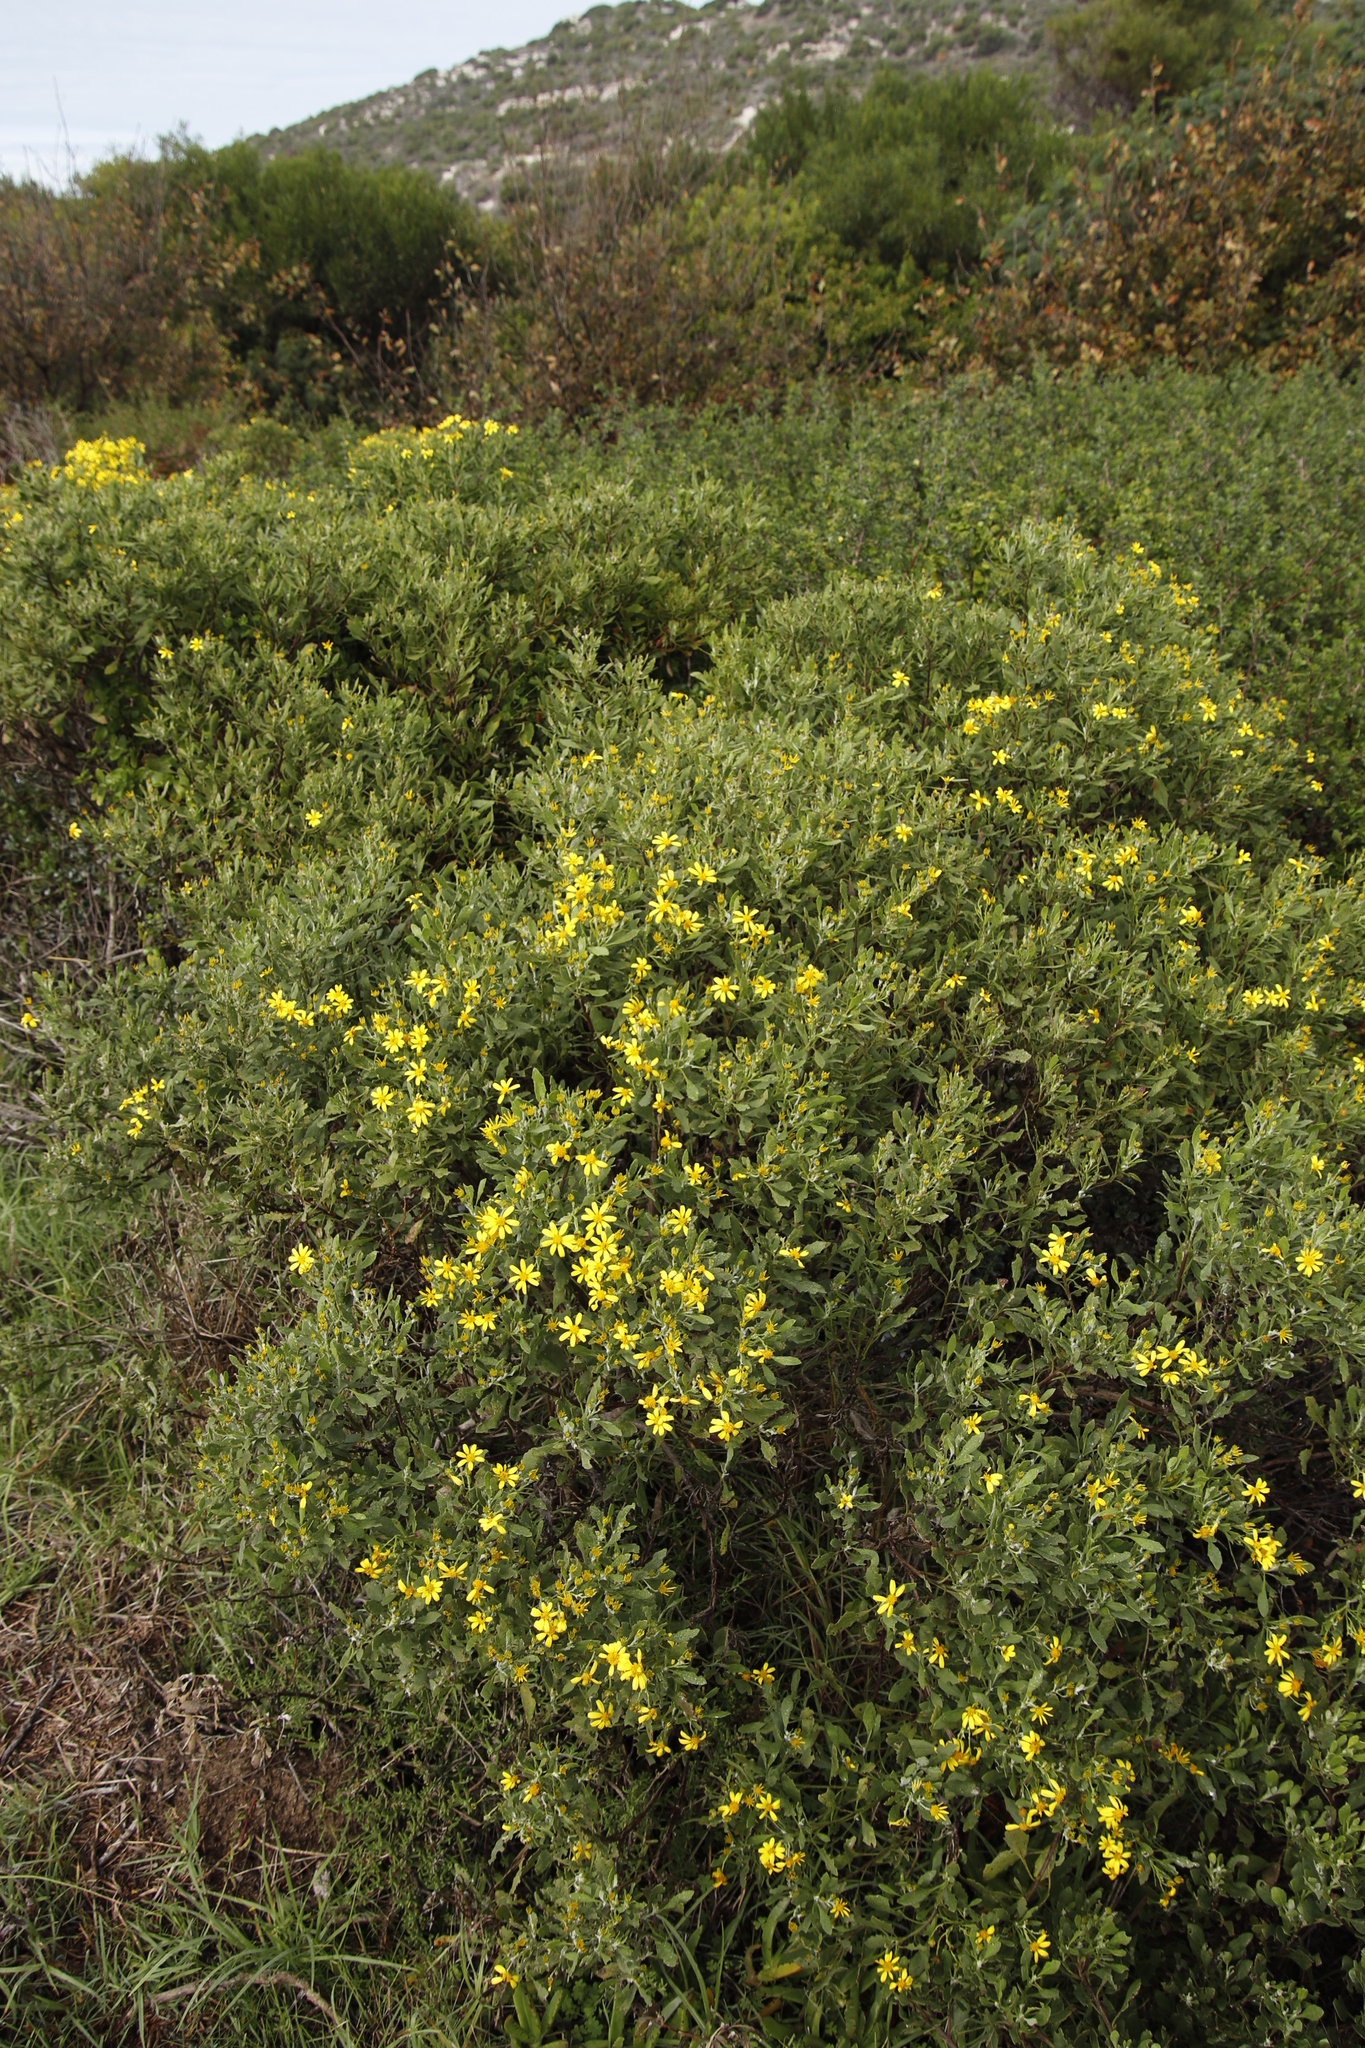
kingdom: Plantae
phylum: Tracheophyta
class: Magnoliopsida
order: Asterales
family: Asteraceae
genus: Osteospermum
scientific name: Osteospermum moniliferum
